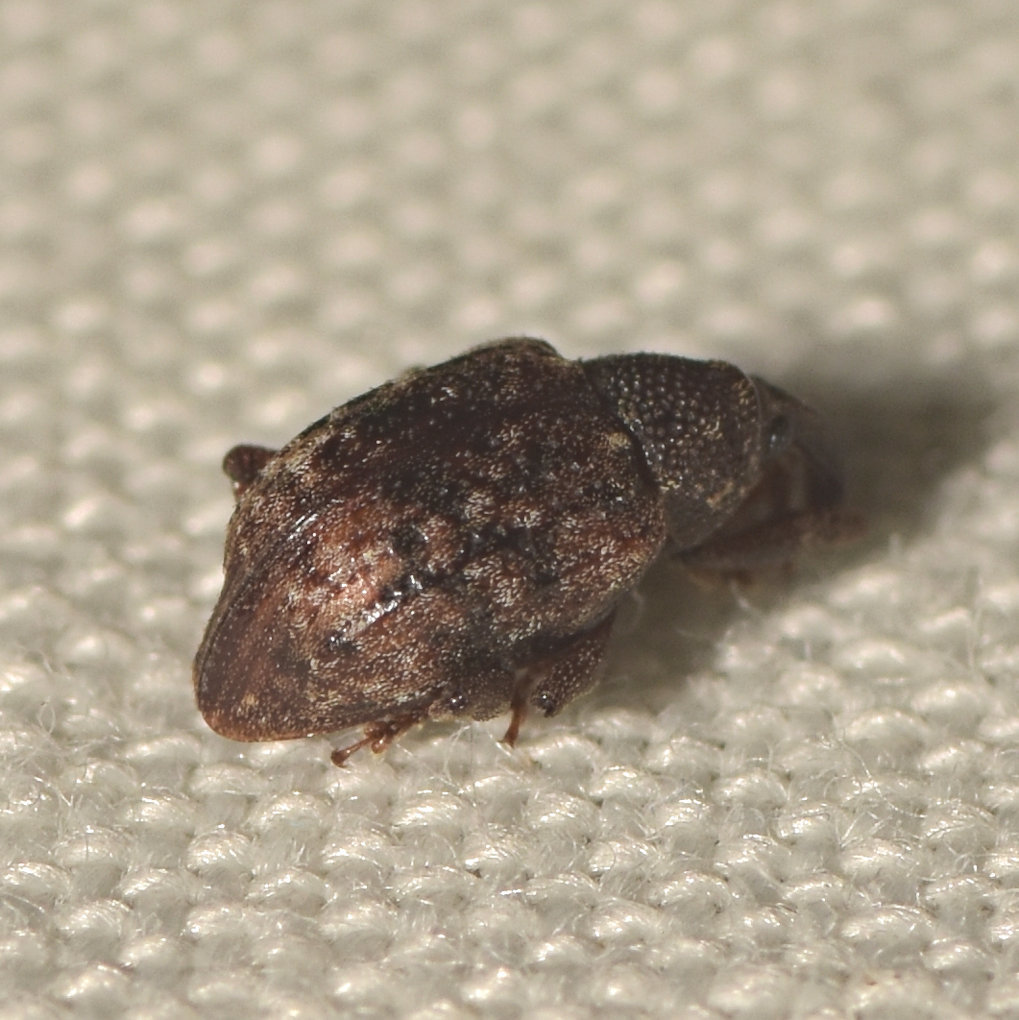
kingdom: Animalia
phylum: Arthropoda
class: Insecta
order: Coleoptera
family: Curculionidae
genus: Conotrachelus
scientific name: Conotrachelus geminatus
